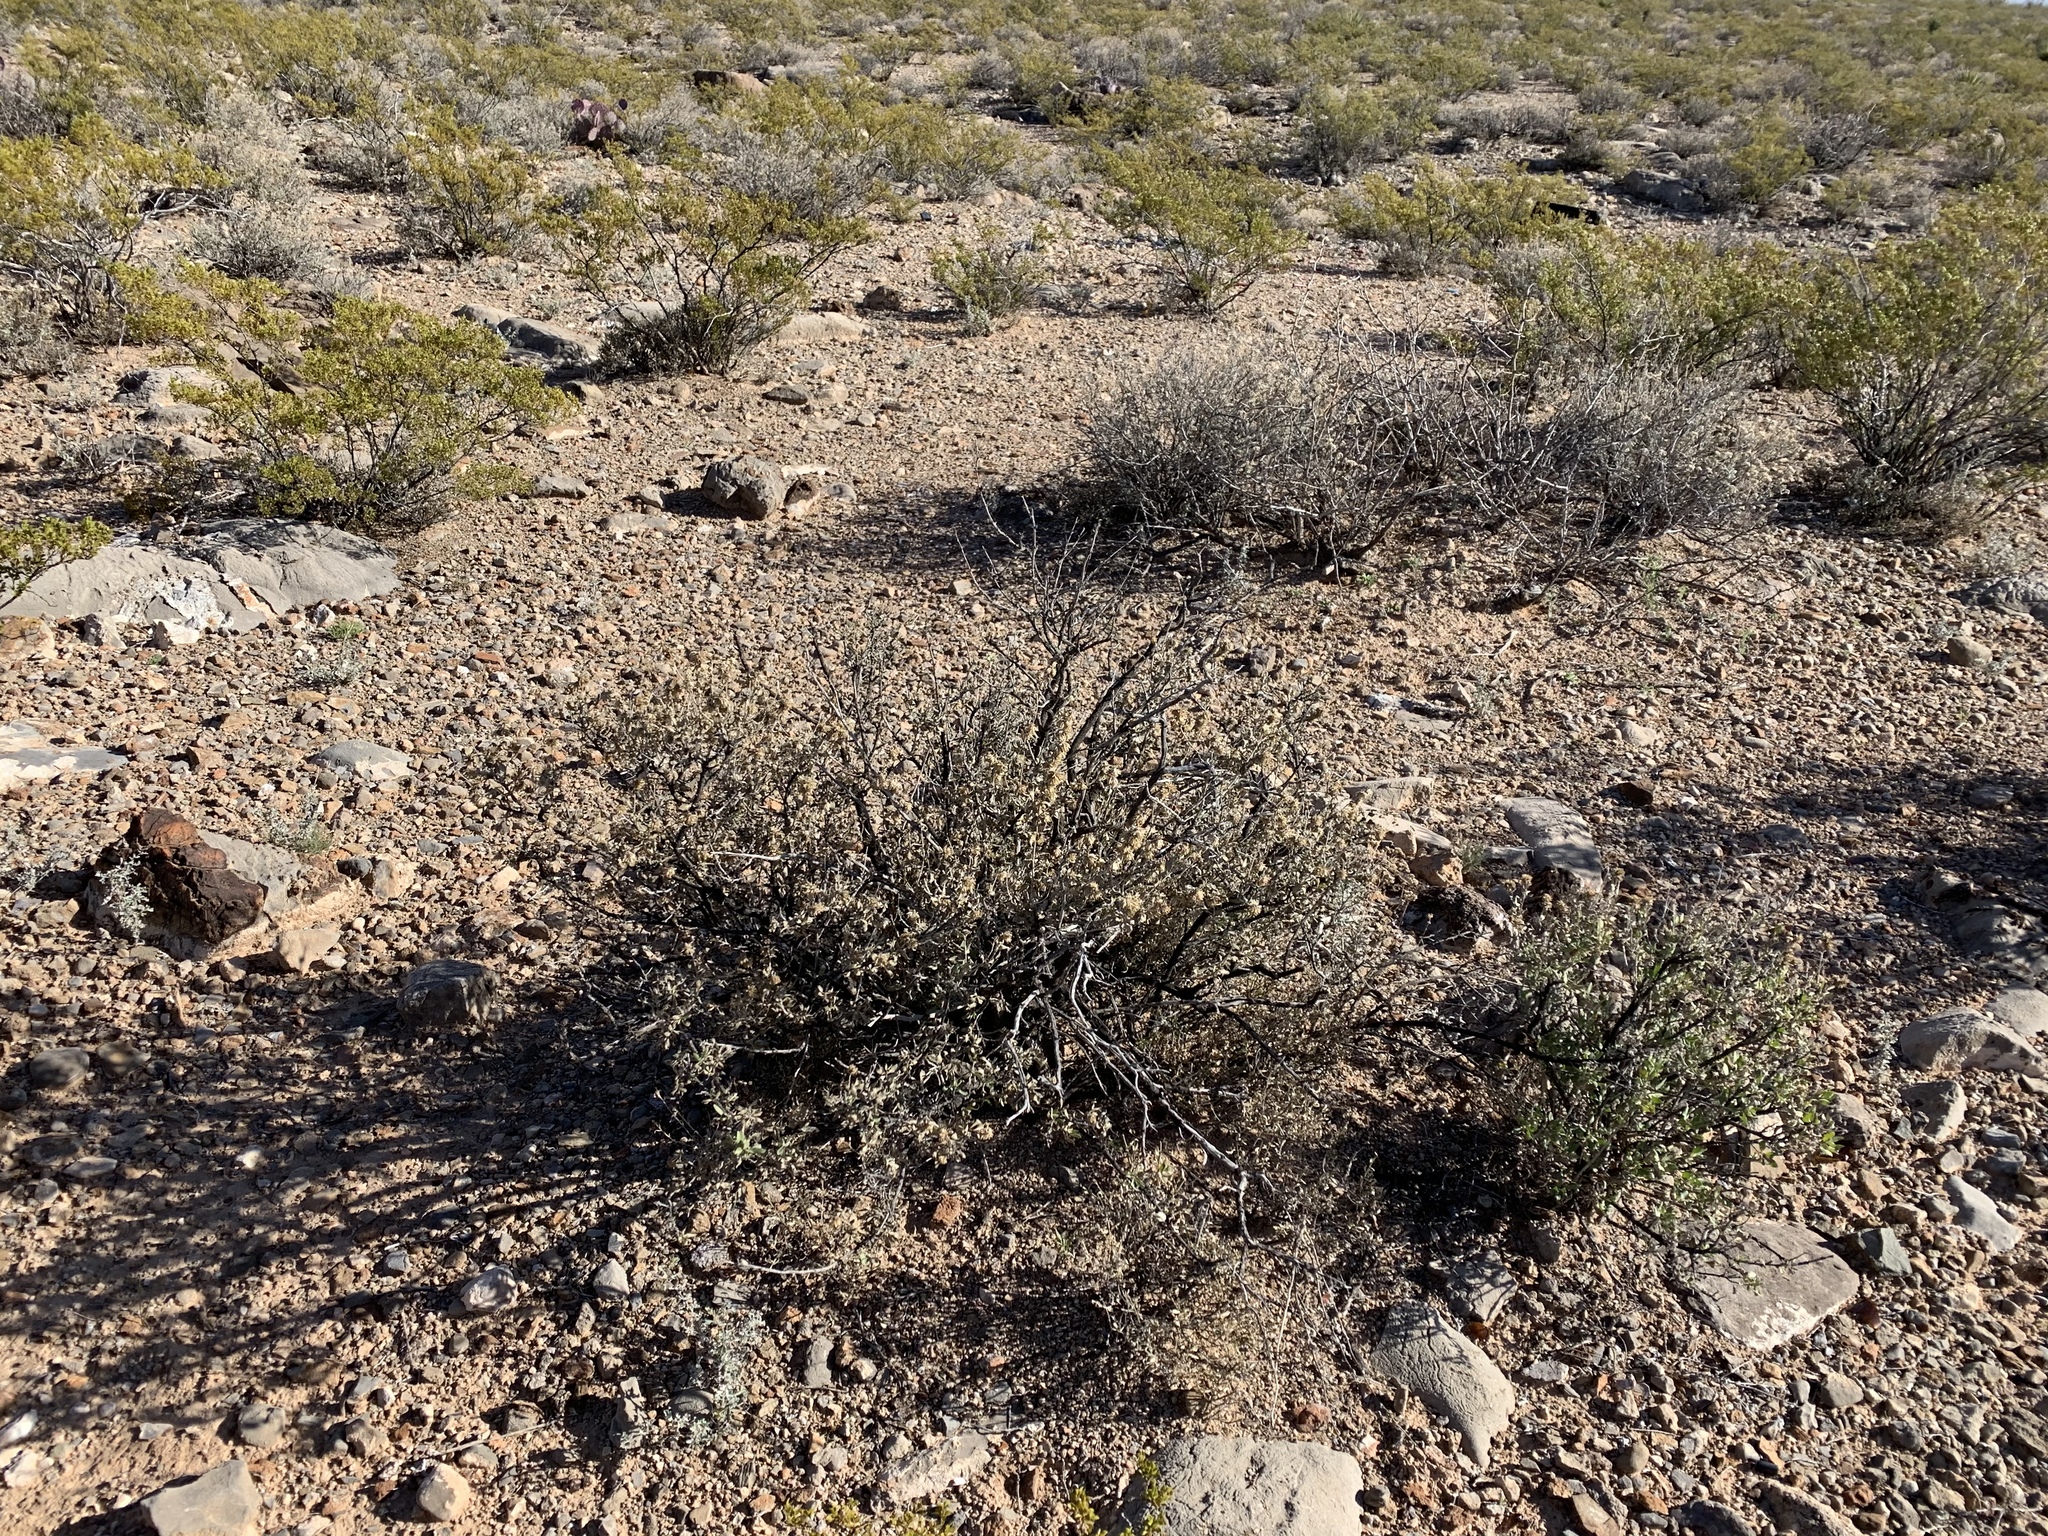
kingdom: Plantae
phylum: Tracheophyta
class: Magnoliopsida
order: Asterales
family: Asteraceae
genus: Flourensia
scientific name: Flourensia cernua
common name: Varnishbush
